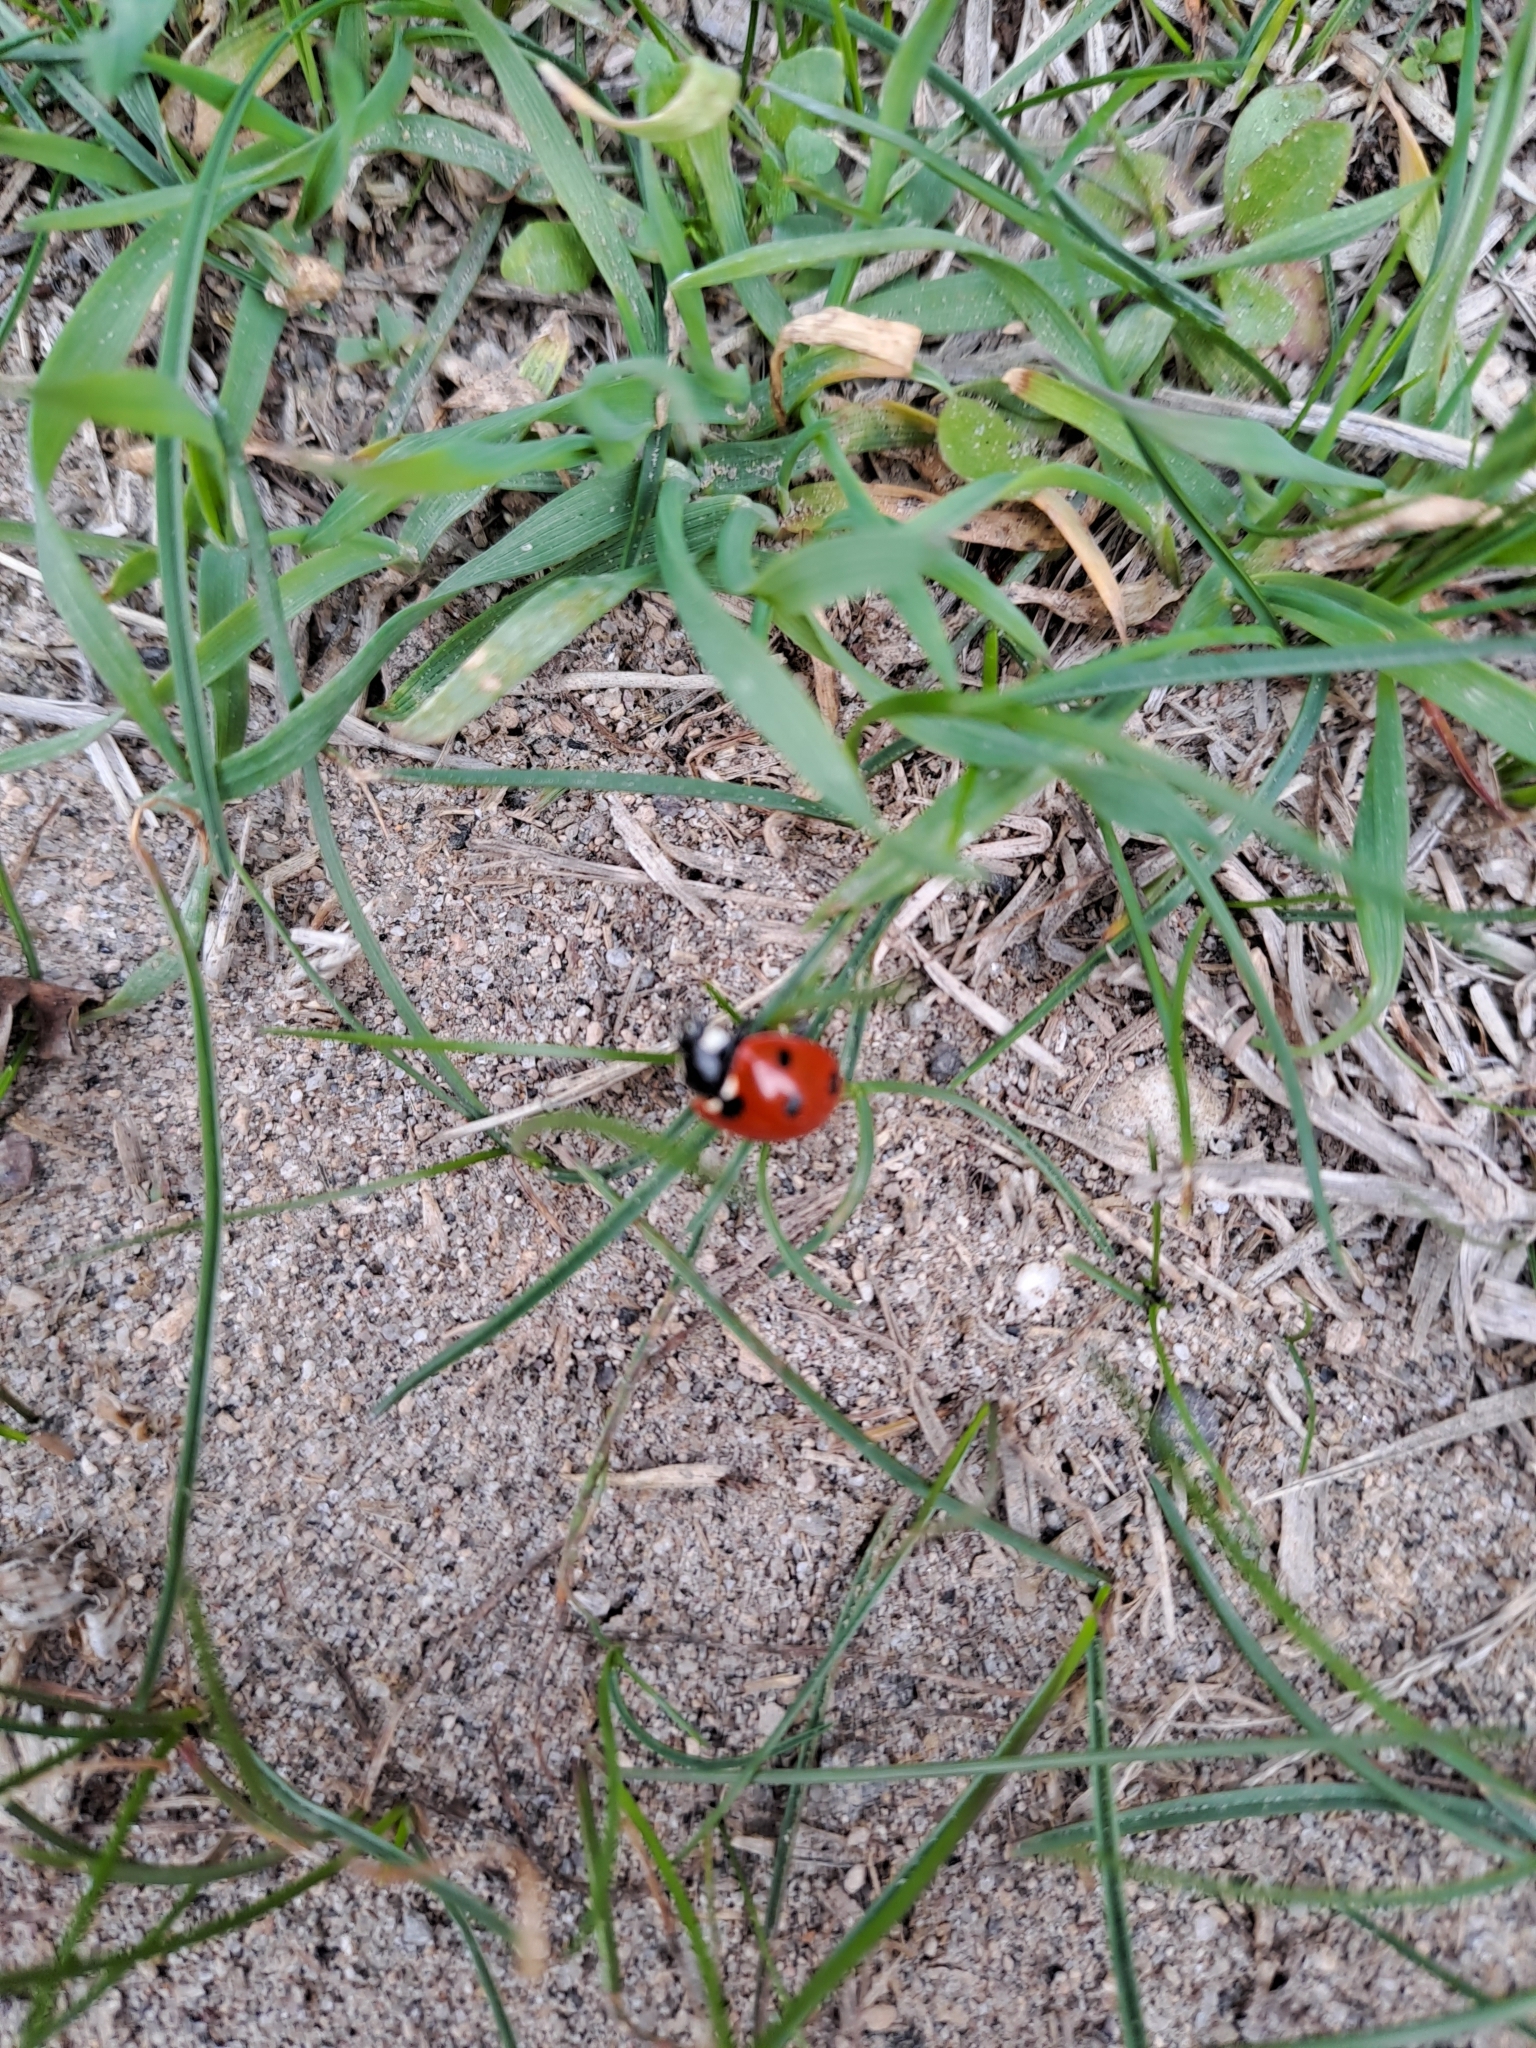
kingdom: Animalia
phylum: Arthropoda
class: Insecta
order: Coleoptera
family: Coccinellidae
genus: Coccinella
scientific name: Coccinella septempunctata
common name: Sevenspotted lady beetle
